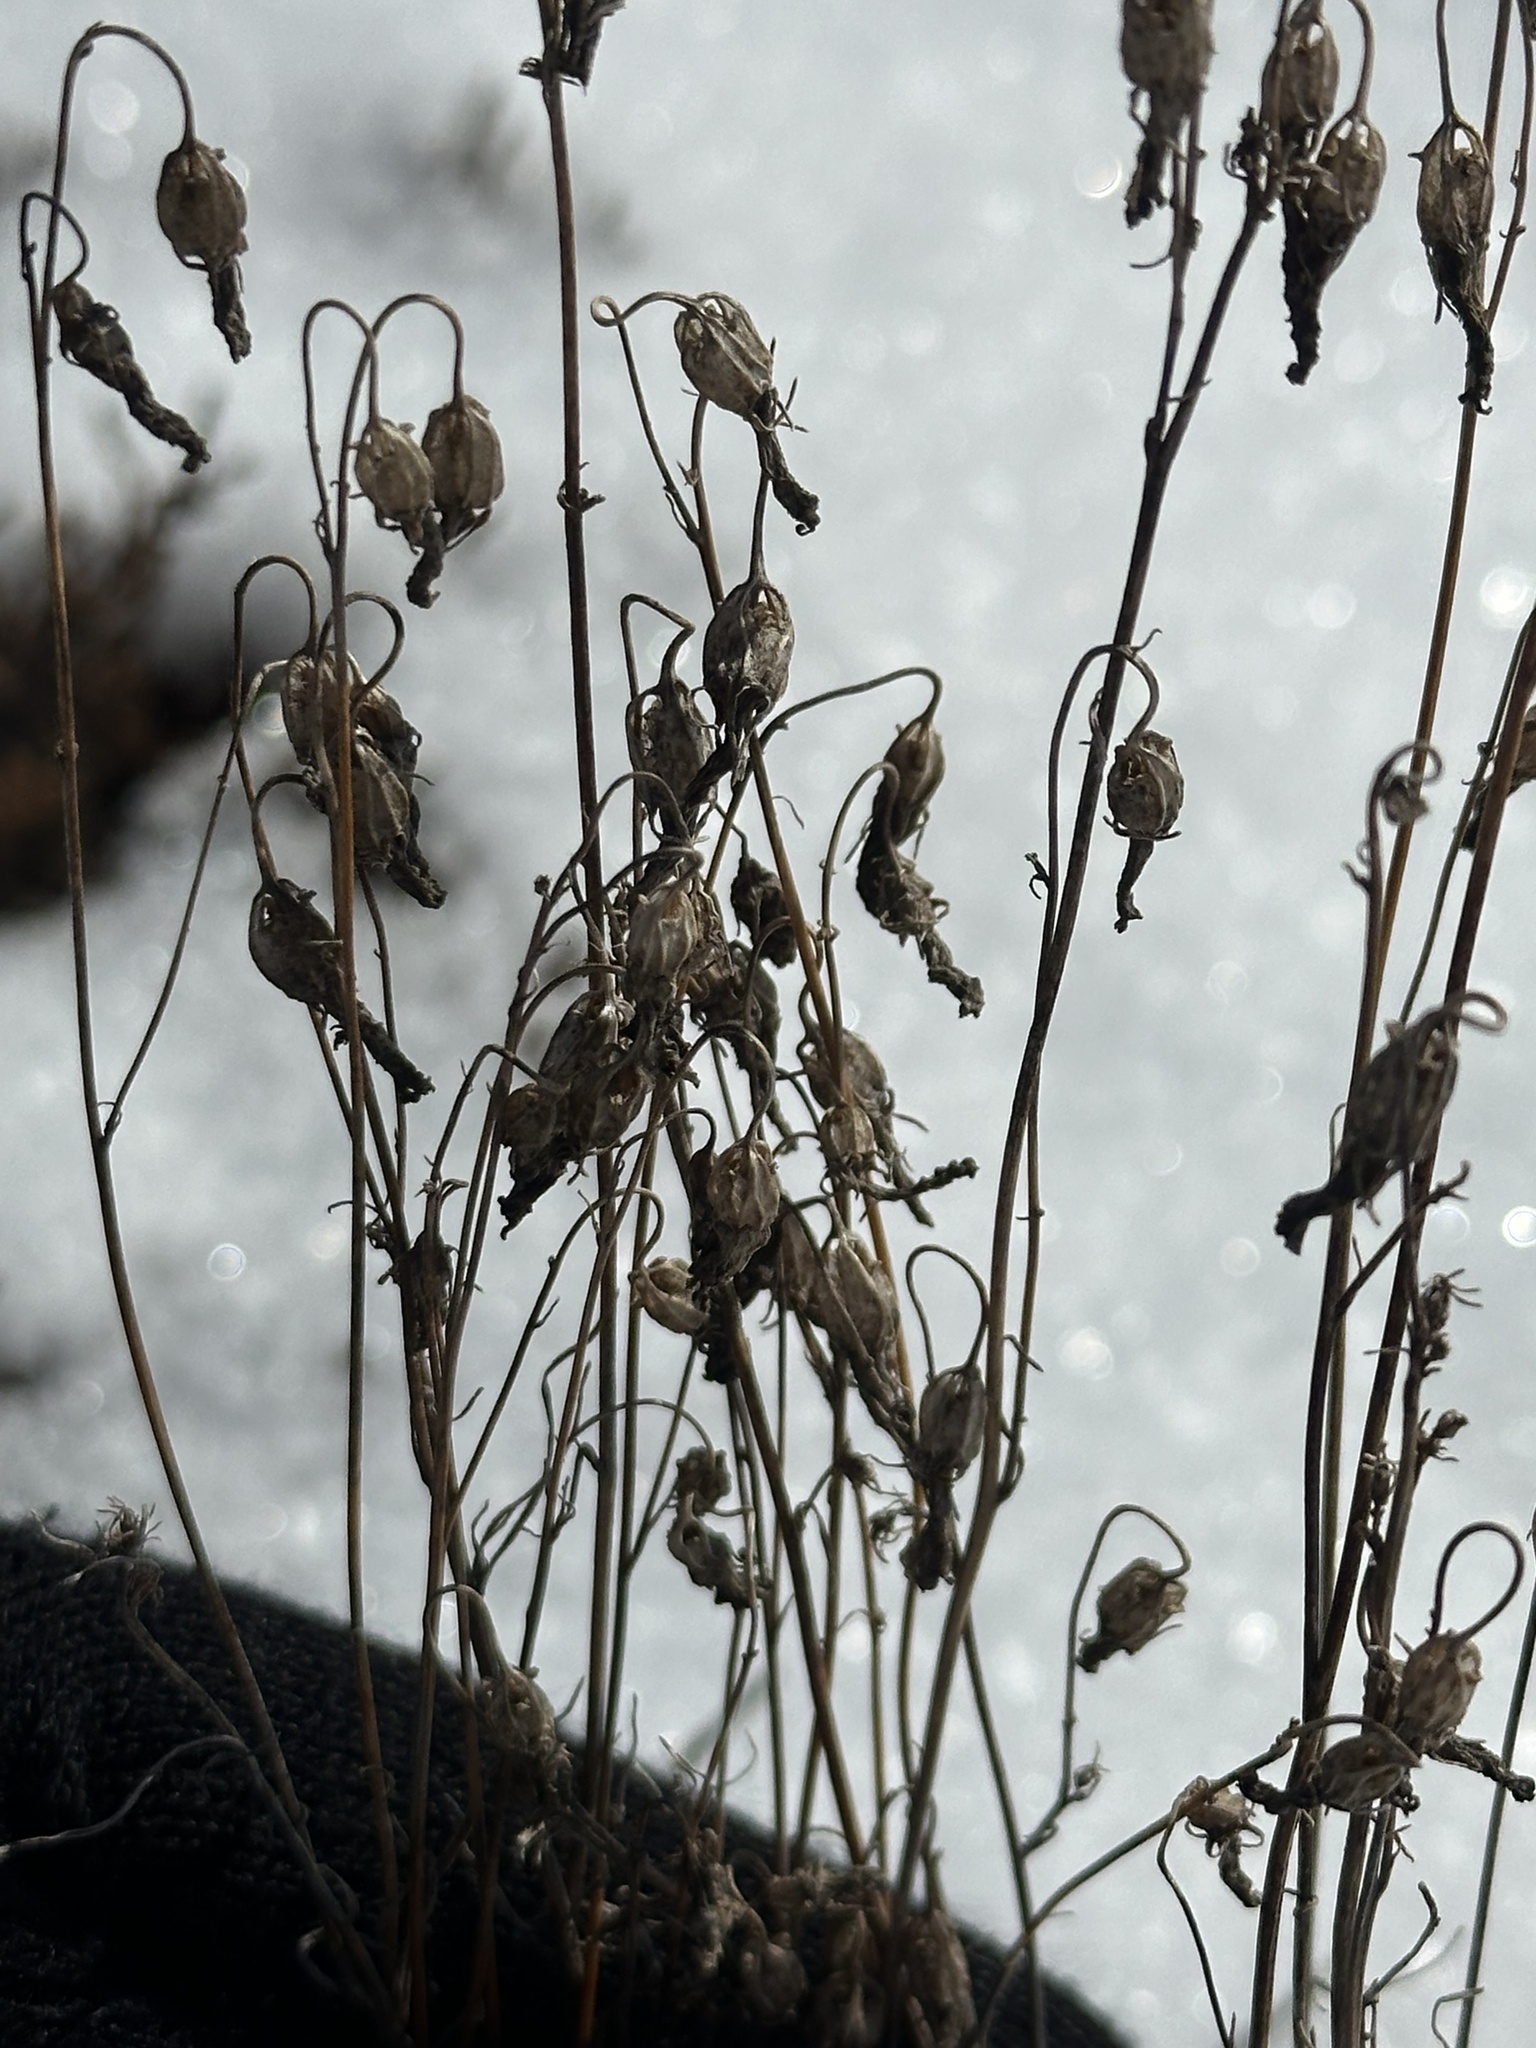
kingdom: Plantae
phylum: Tracheophyta
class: Magnoliopsida
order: Asterales
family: Campanulaceae
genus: Campanula
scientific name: Campanula alaskana
